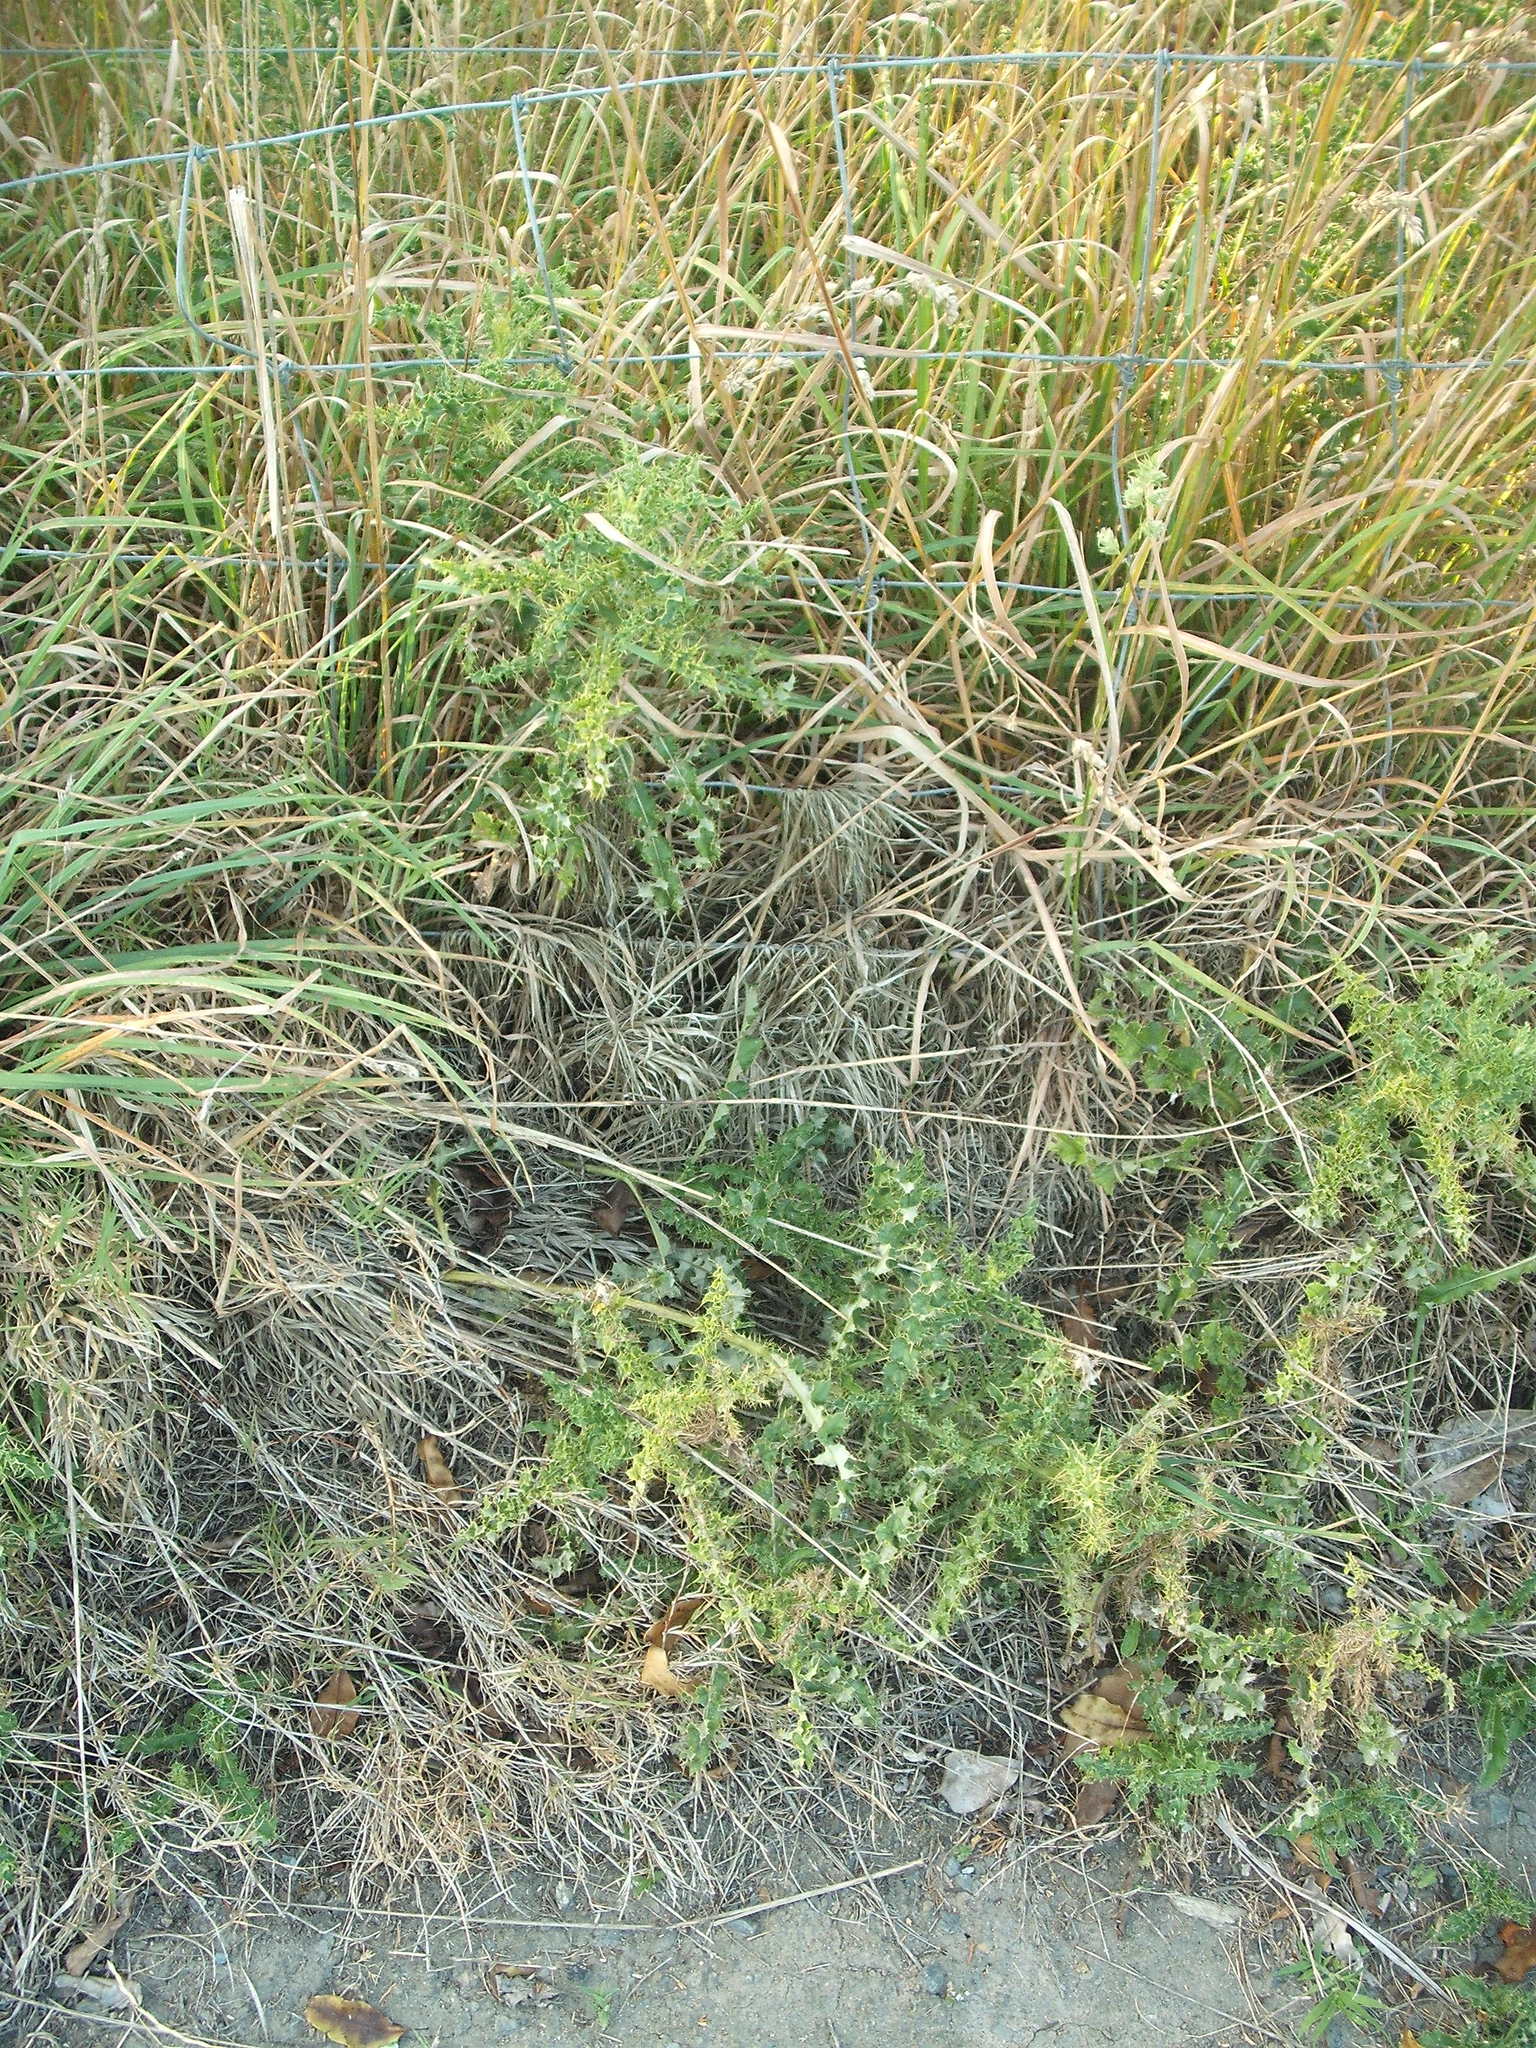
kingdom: Plantae
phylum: Tracheophyta
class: Magnoliopsida
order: Asterales
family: Asteraceae
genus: Cirsium
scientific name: Cirsium arvense
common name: Creeping thistle
